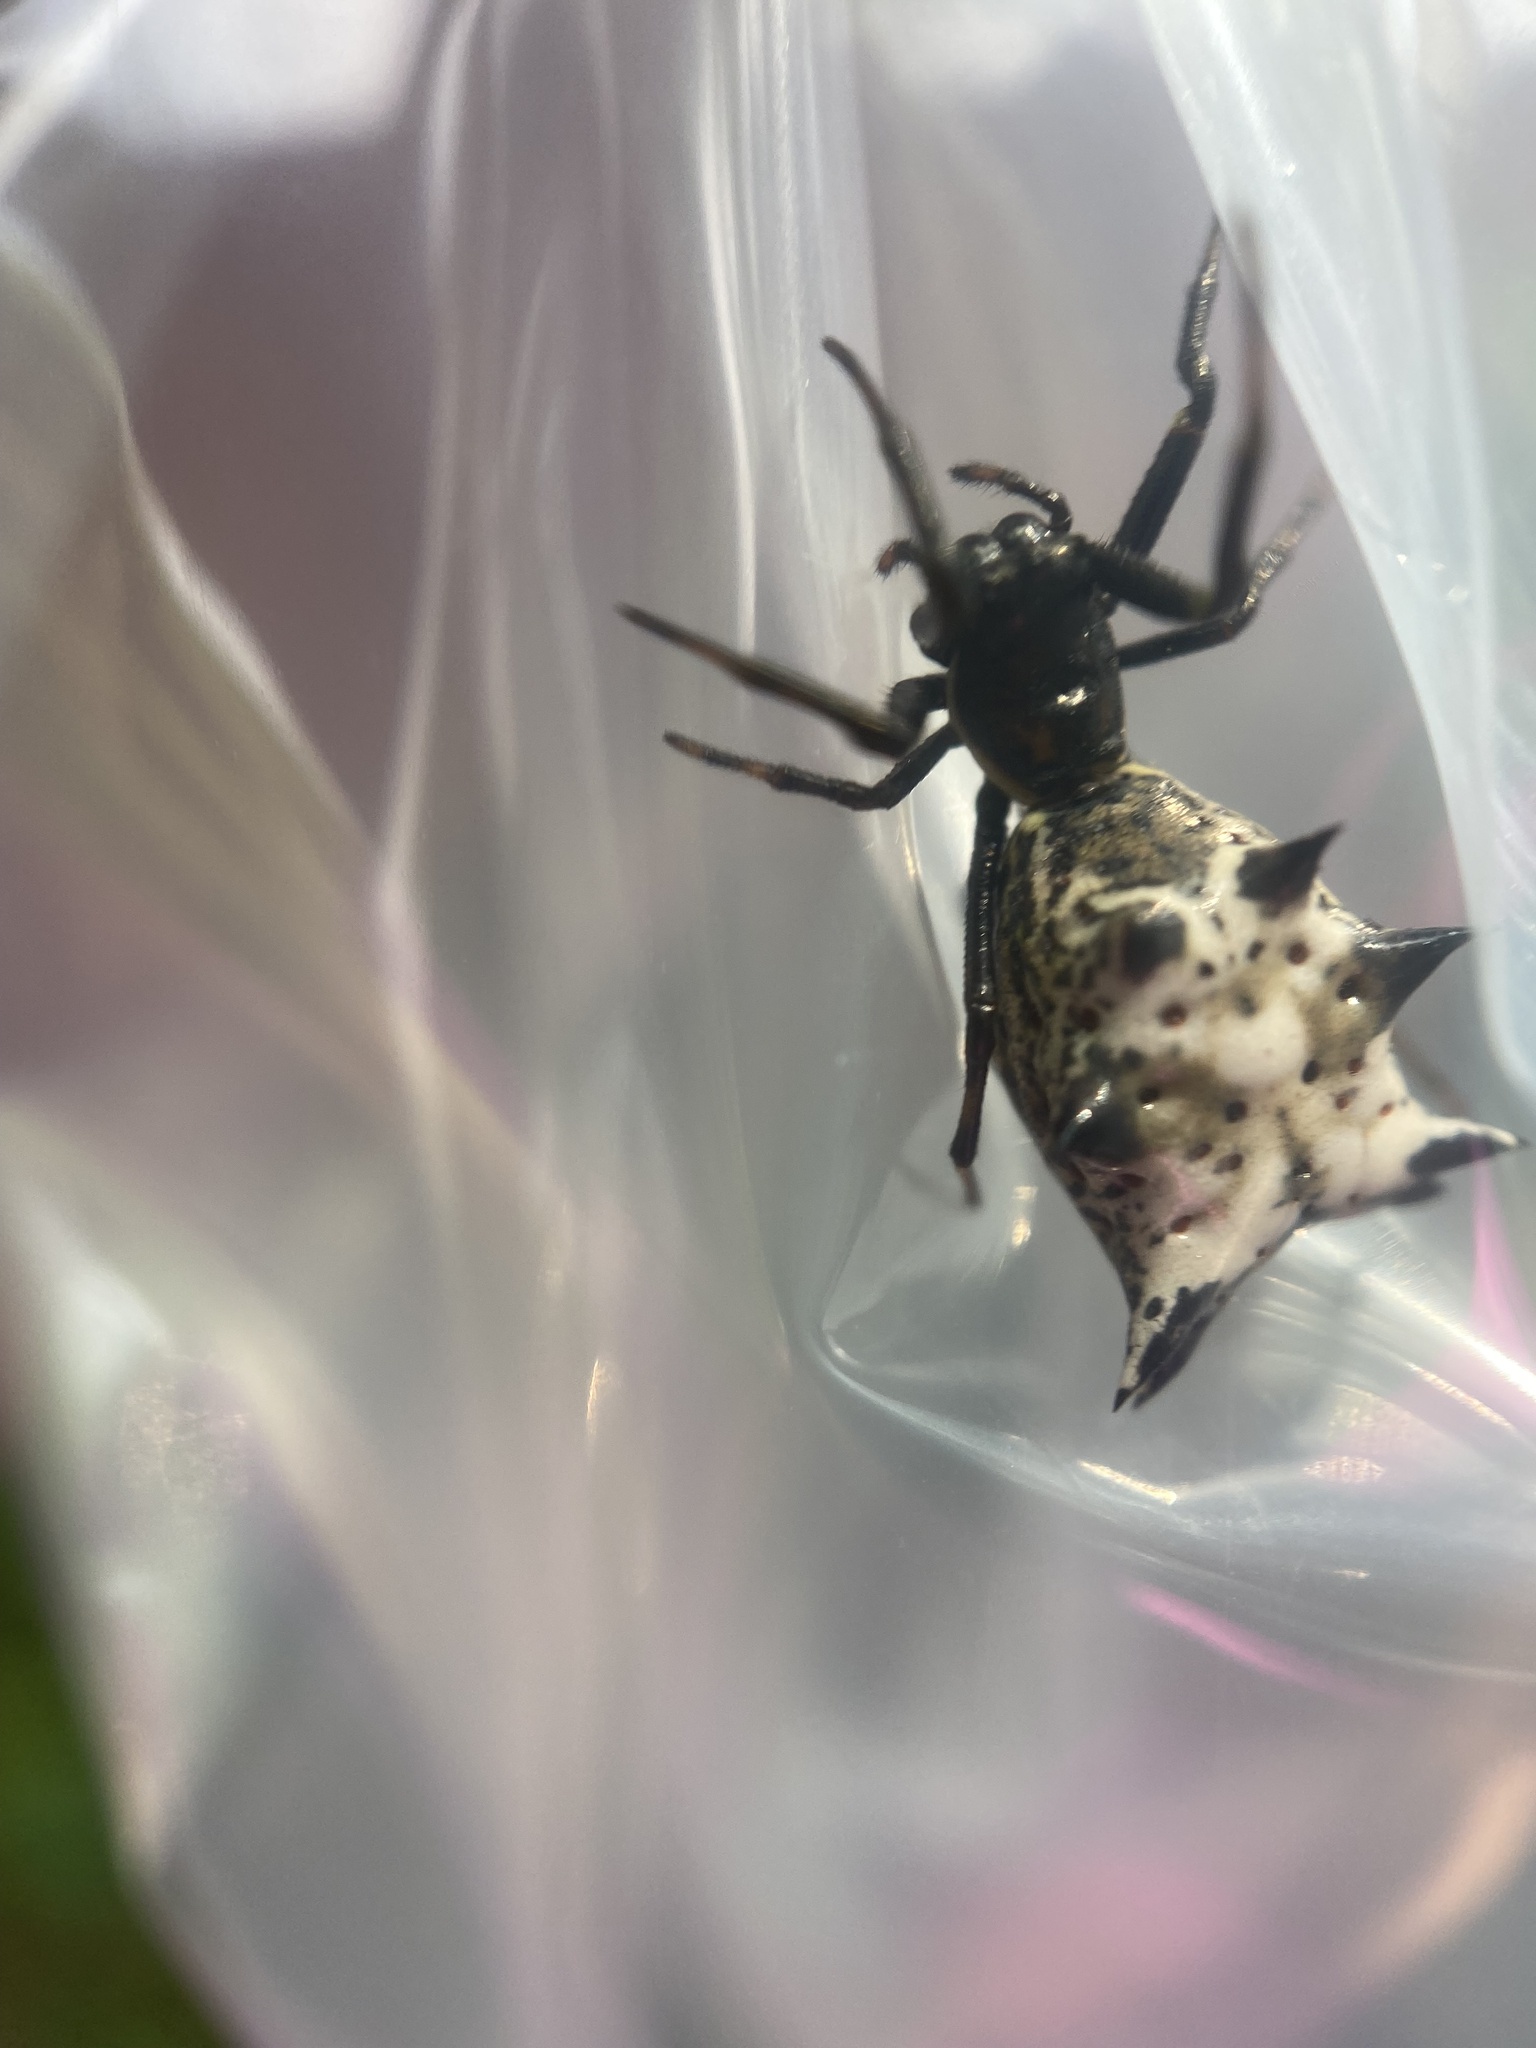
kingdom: Animalia
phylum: Arthropoda
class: Arachnida
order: Araneae
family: Araneidae
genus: Micrathena
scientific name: Micrathena gracilis
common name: Orb weavers
